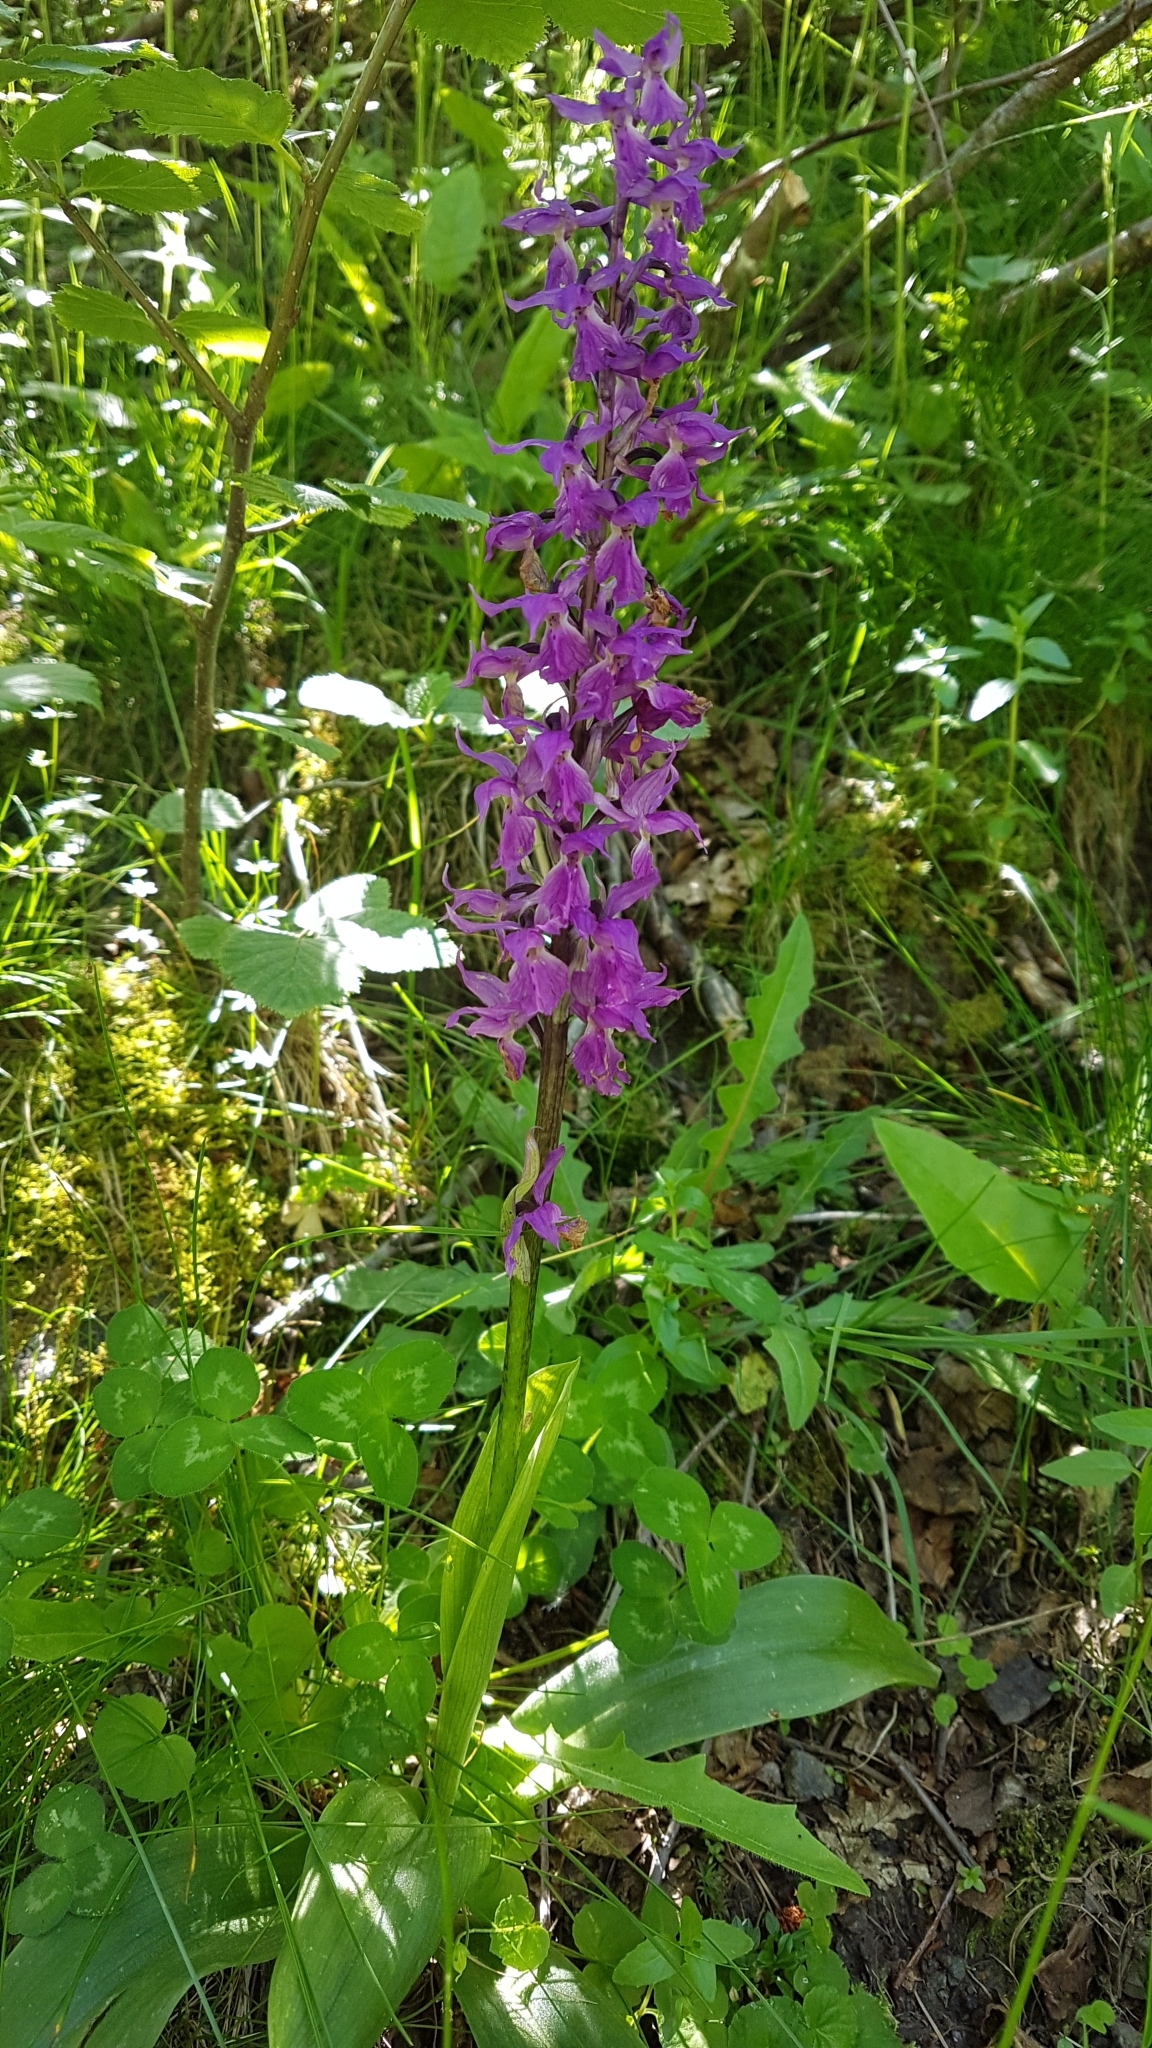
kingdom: Plantae
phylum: Tracheophyta
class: Liliopsida
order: Asparagales
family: Orchidaceae
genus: Orchis
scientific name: Orchis mascula
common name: Early-purple orchid
